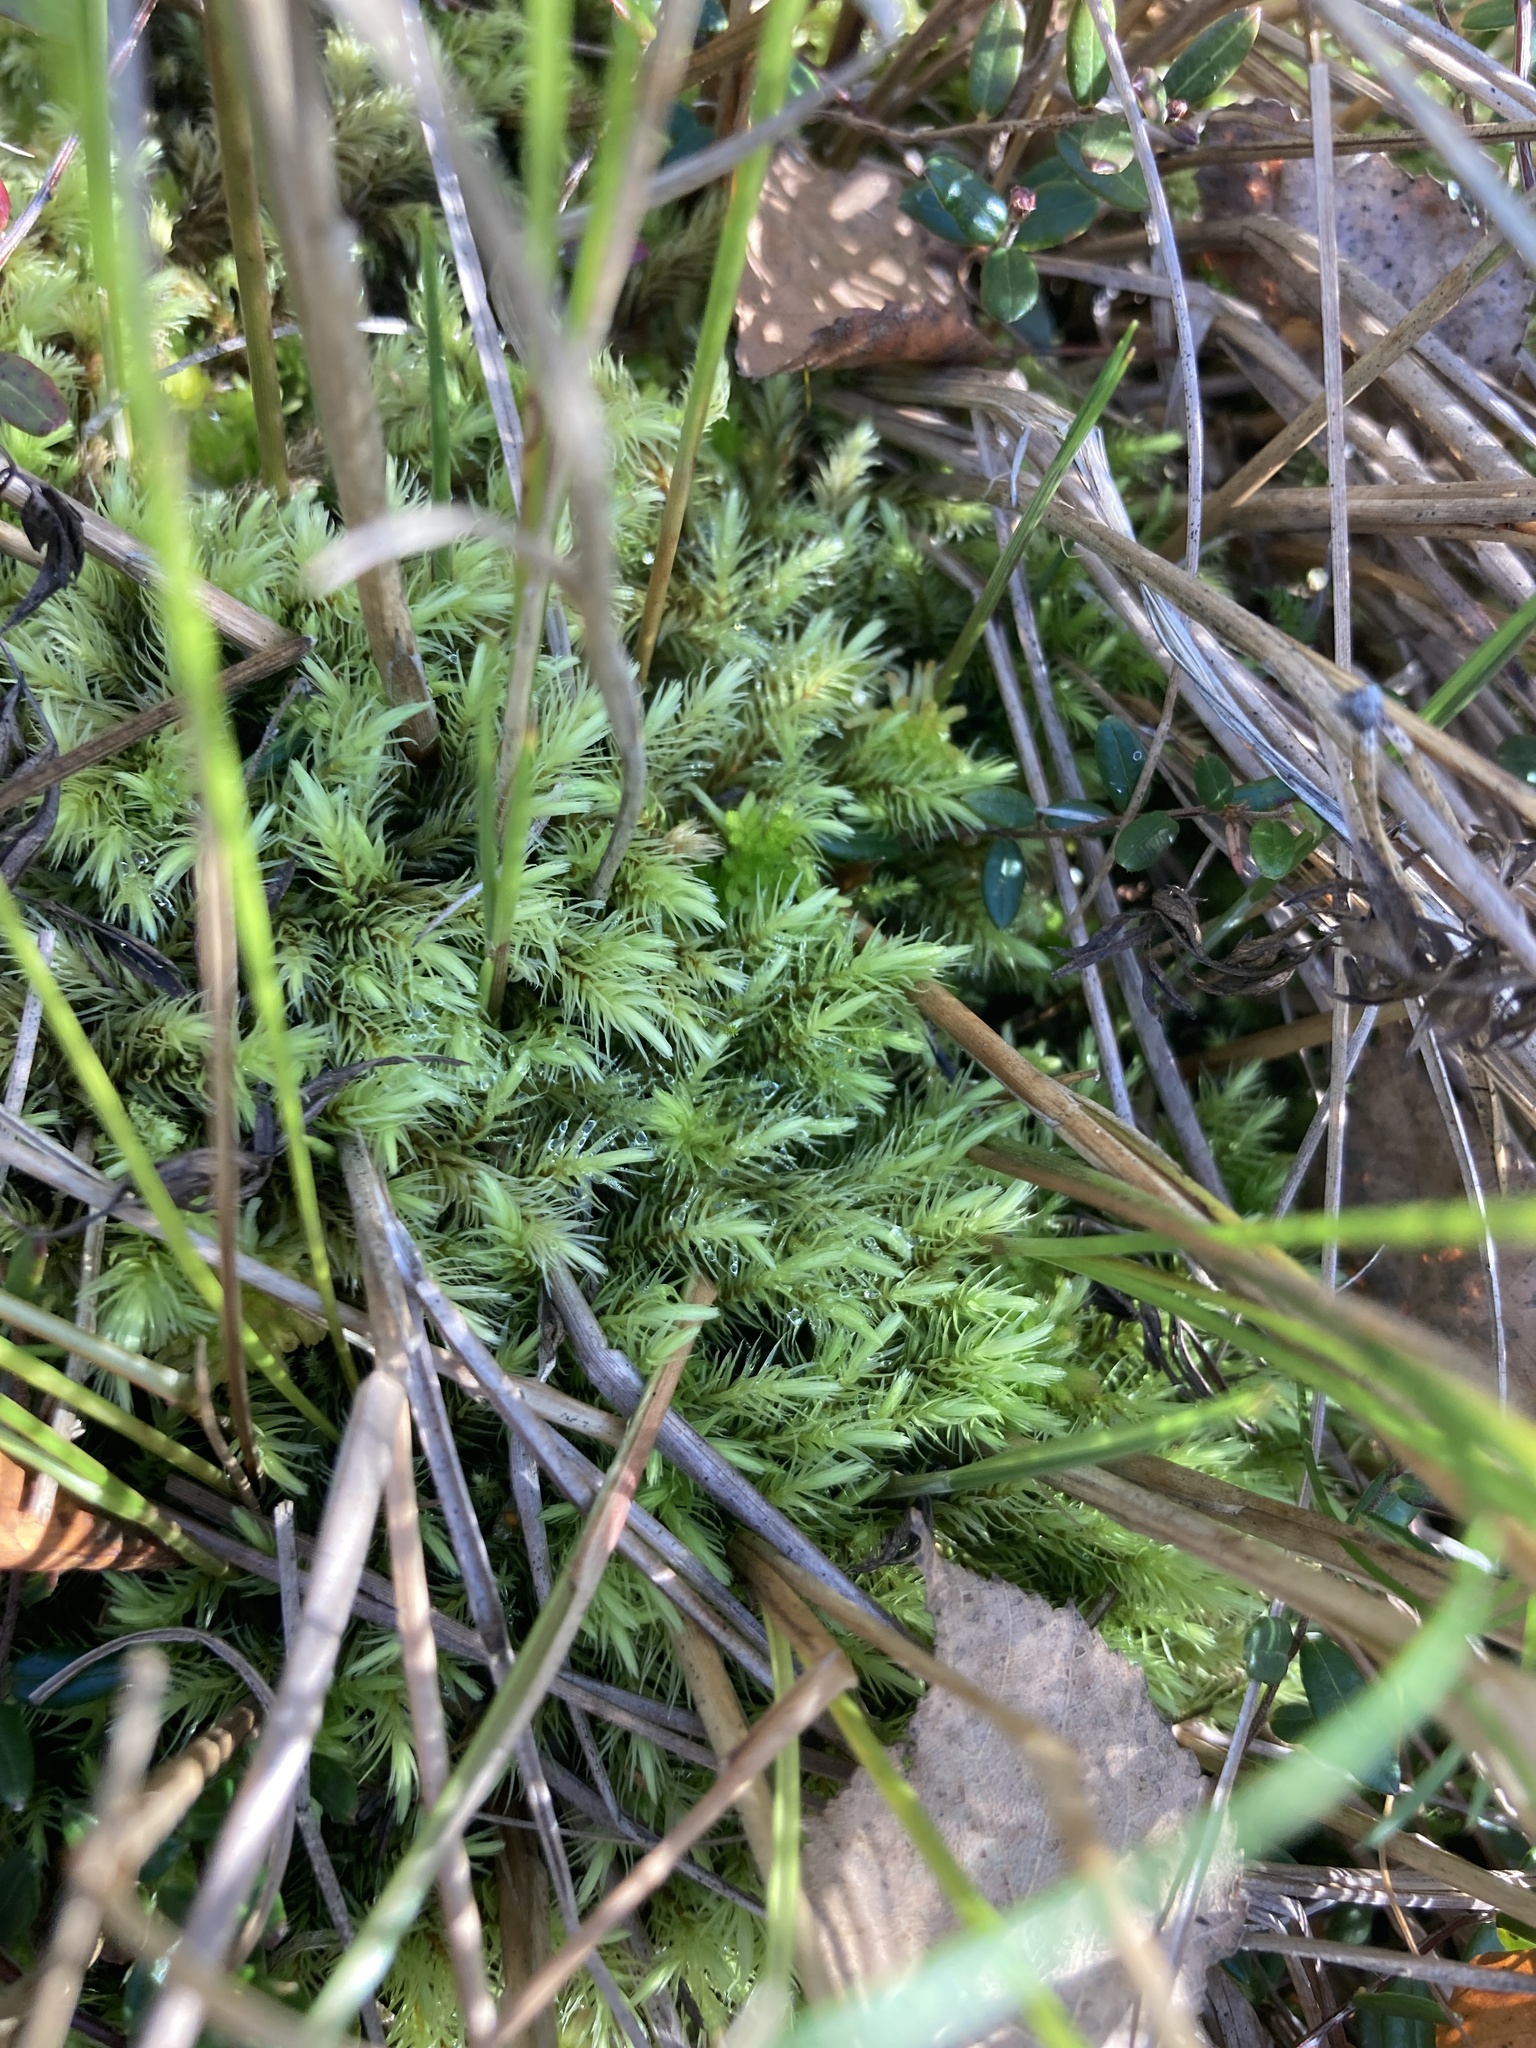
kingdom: Plantae
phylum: Bryophyta
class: Bryopsida
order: Aulacomniales
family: Aulacomniaceae
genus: Aulacomnium
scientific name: Aulacomnium palustre
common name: Bog groove-moss
